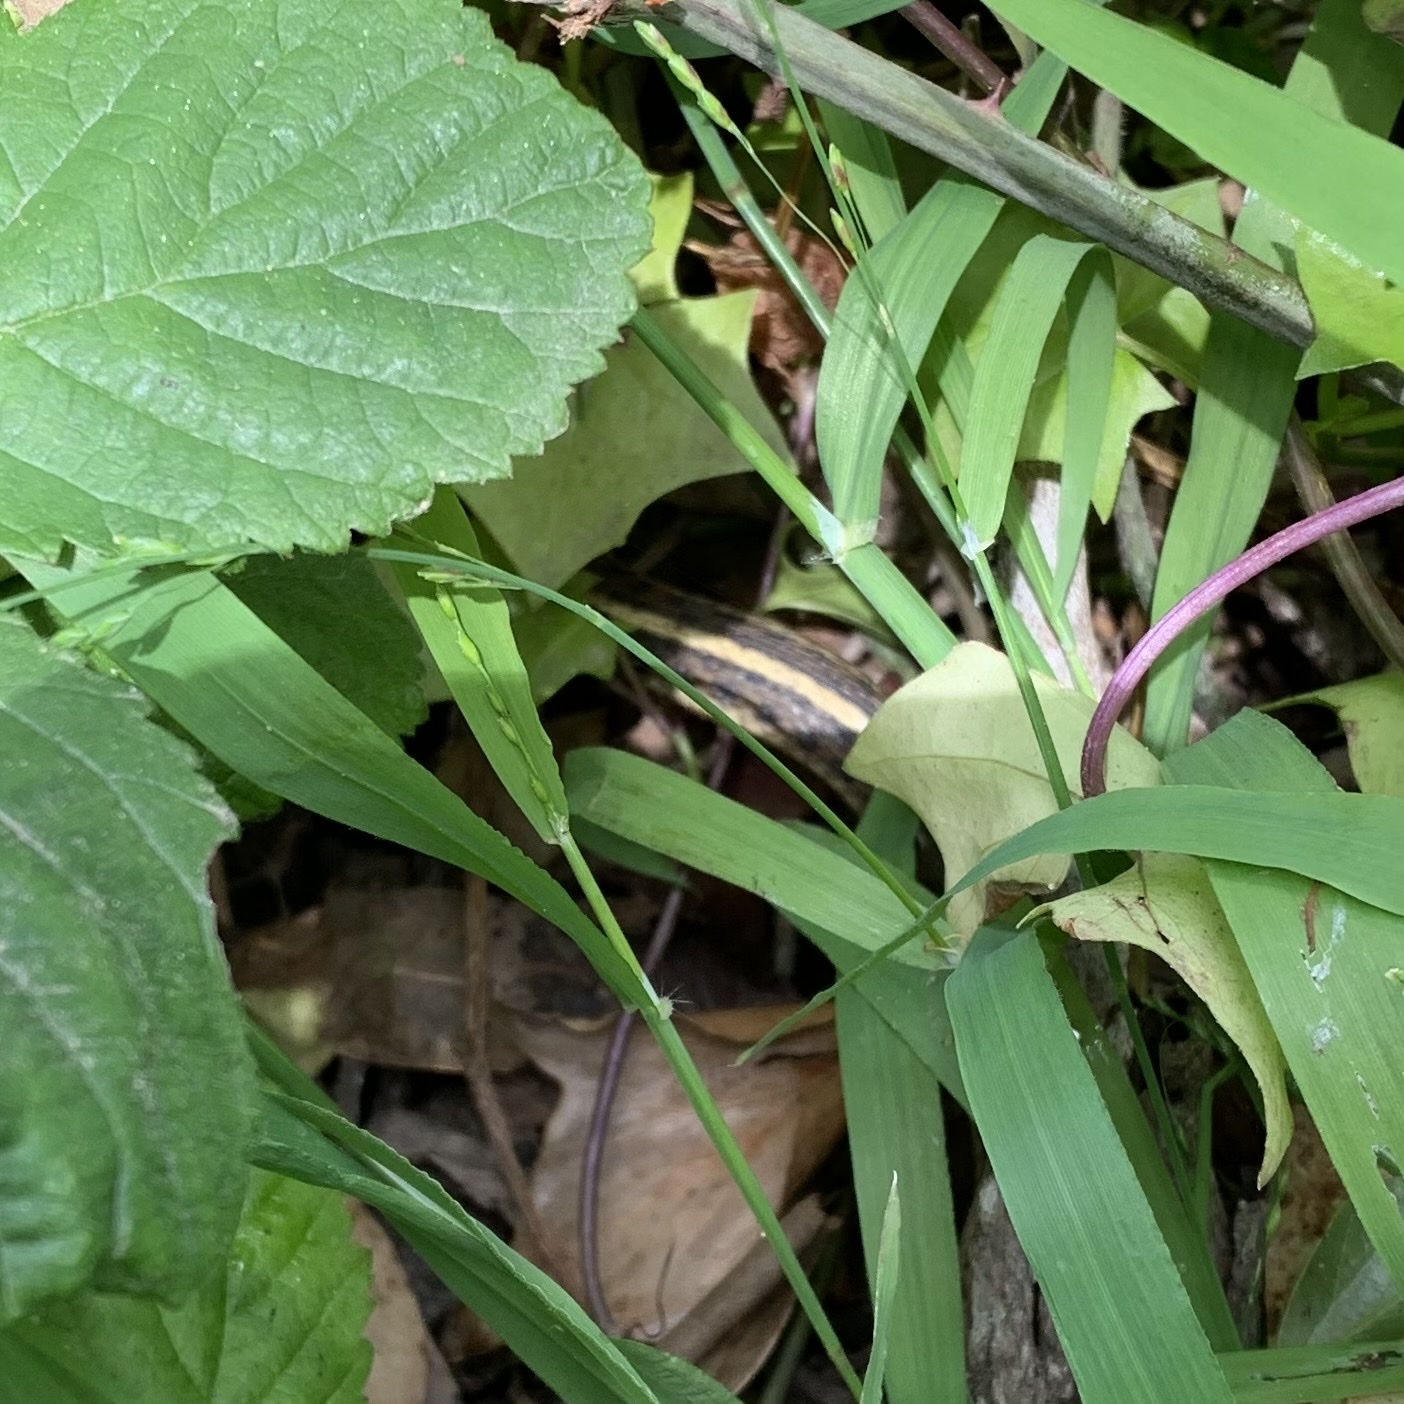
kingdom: Animalia
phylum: Chordata
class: Squamata
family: Colubridae
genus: Thamnophis
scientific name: Thamnophis elegans
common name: Western terrestrial garter snake
